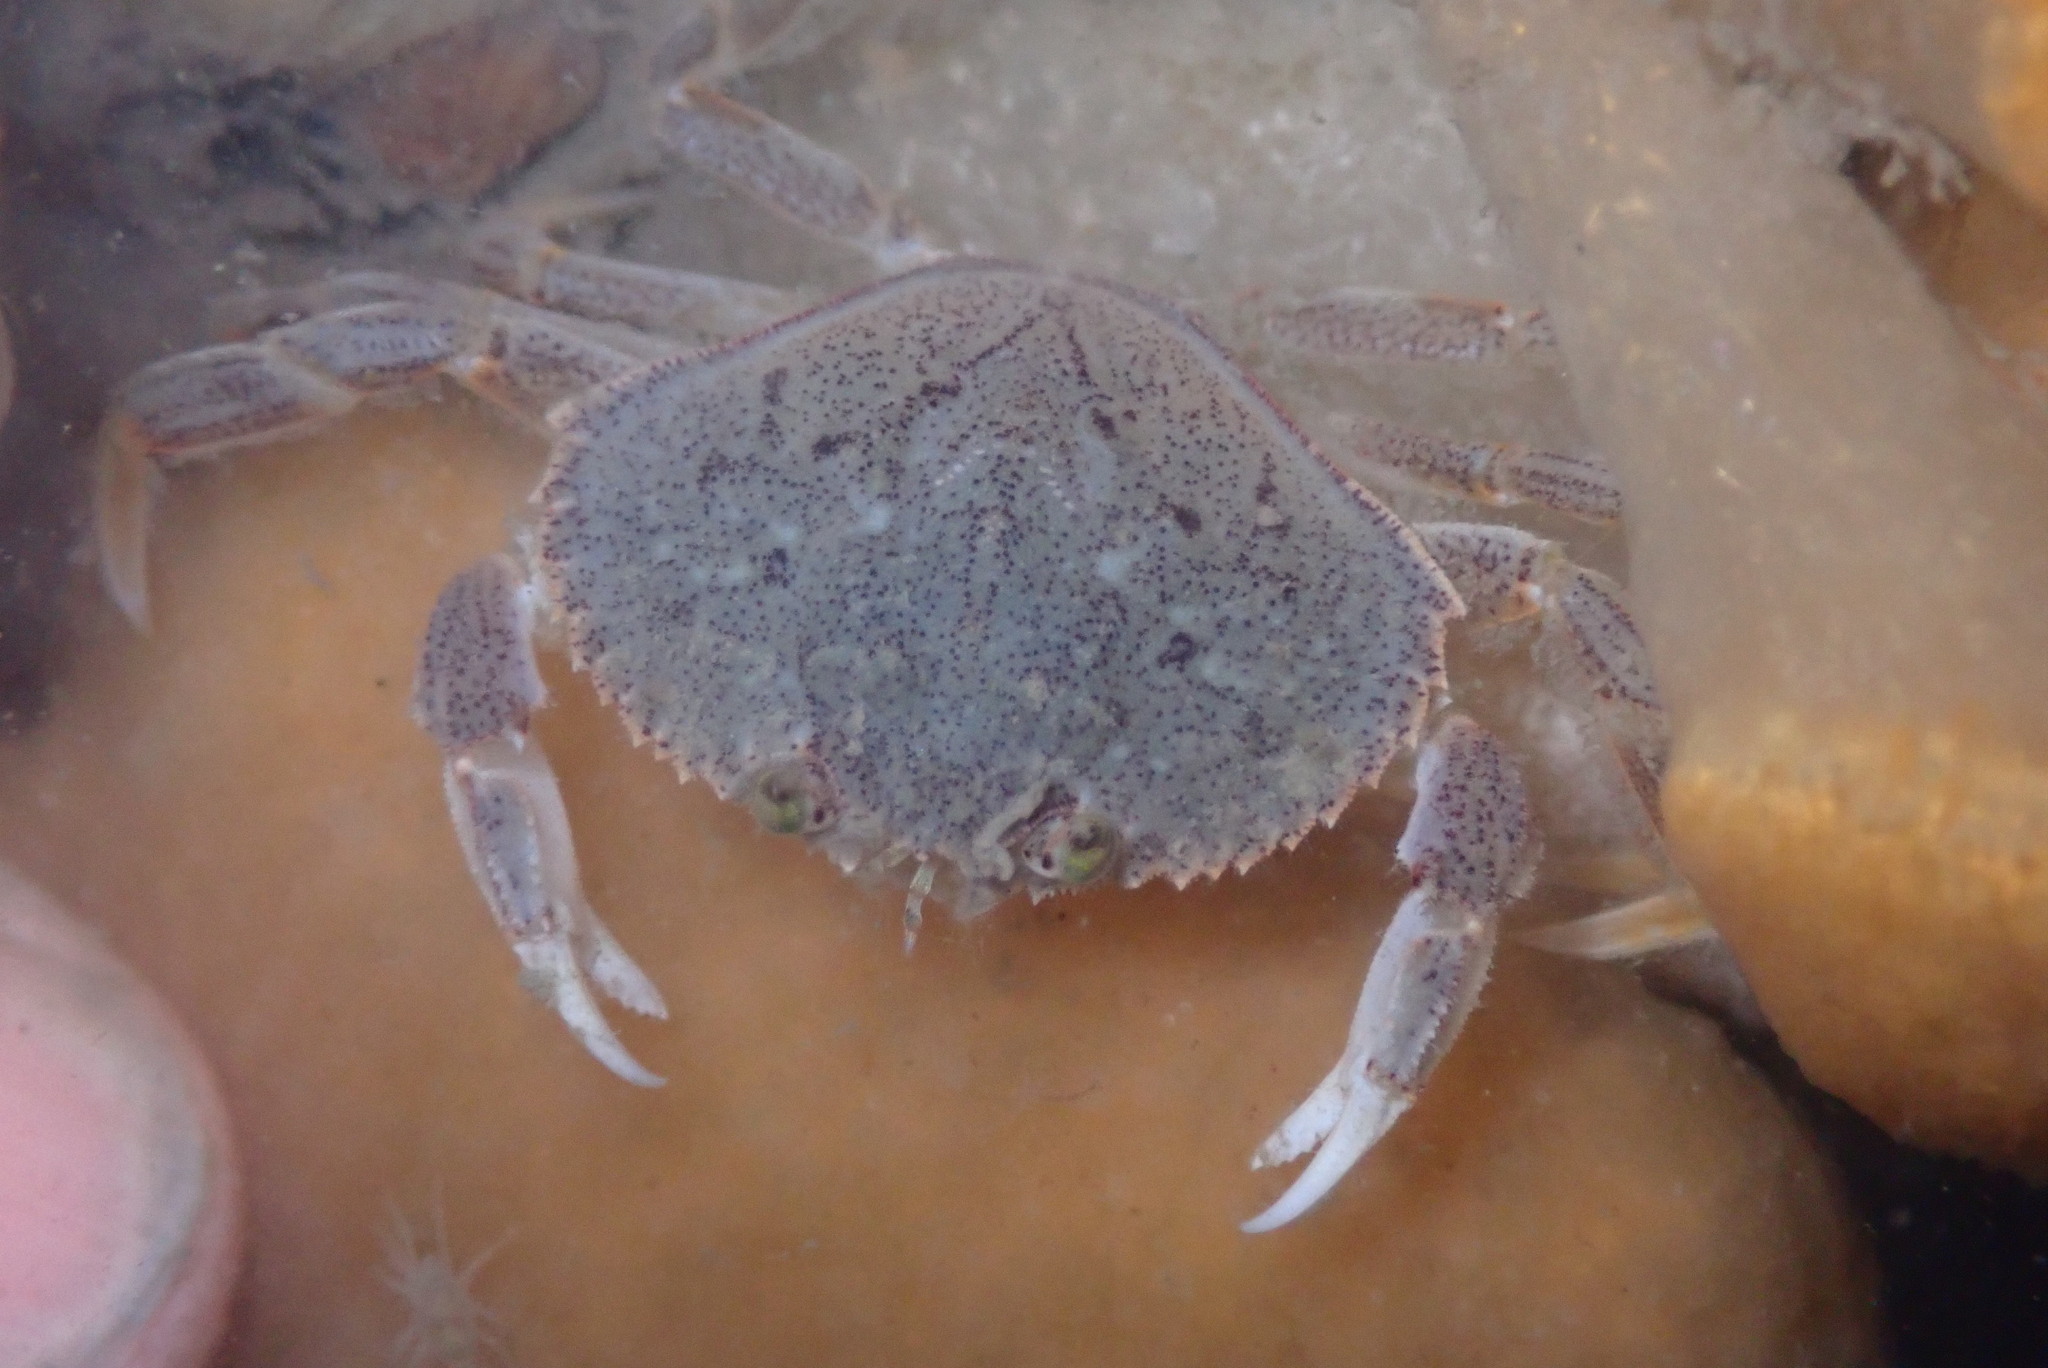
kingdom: Animalia
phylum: Arthropoda
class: Malacostraca
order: Decapoda
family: Cancridae
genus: Metacarcinus
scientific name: Metacarcinus magister
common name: Californian crab
